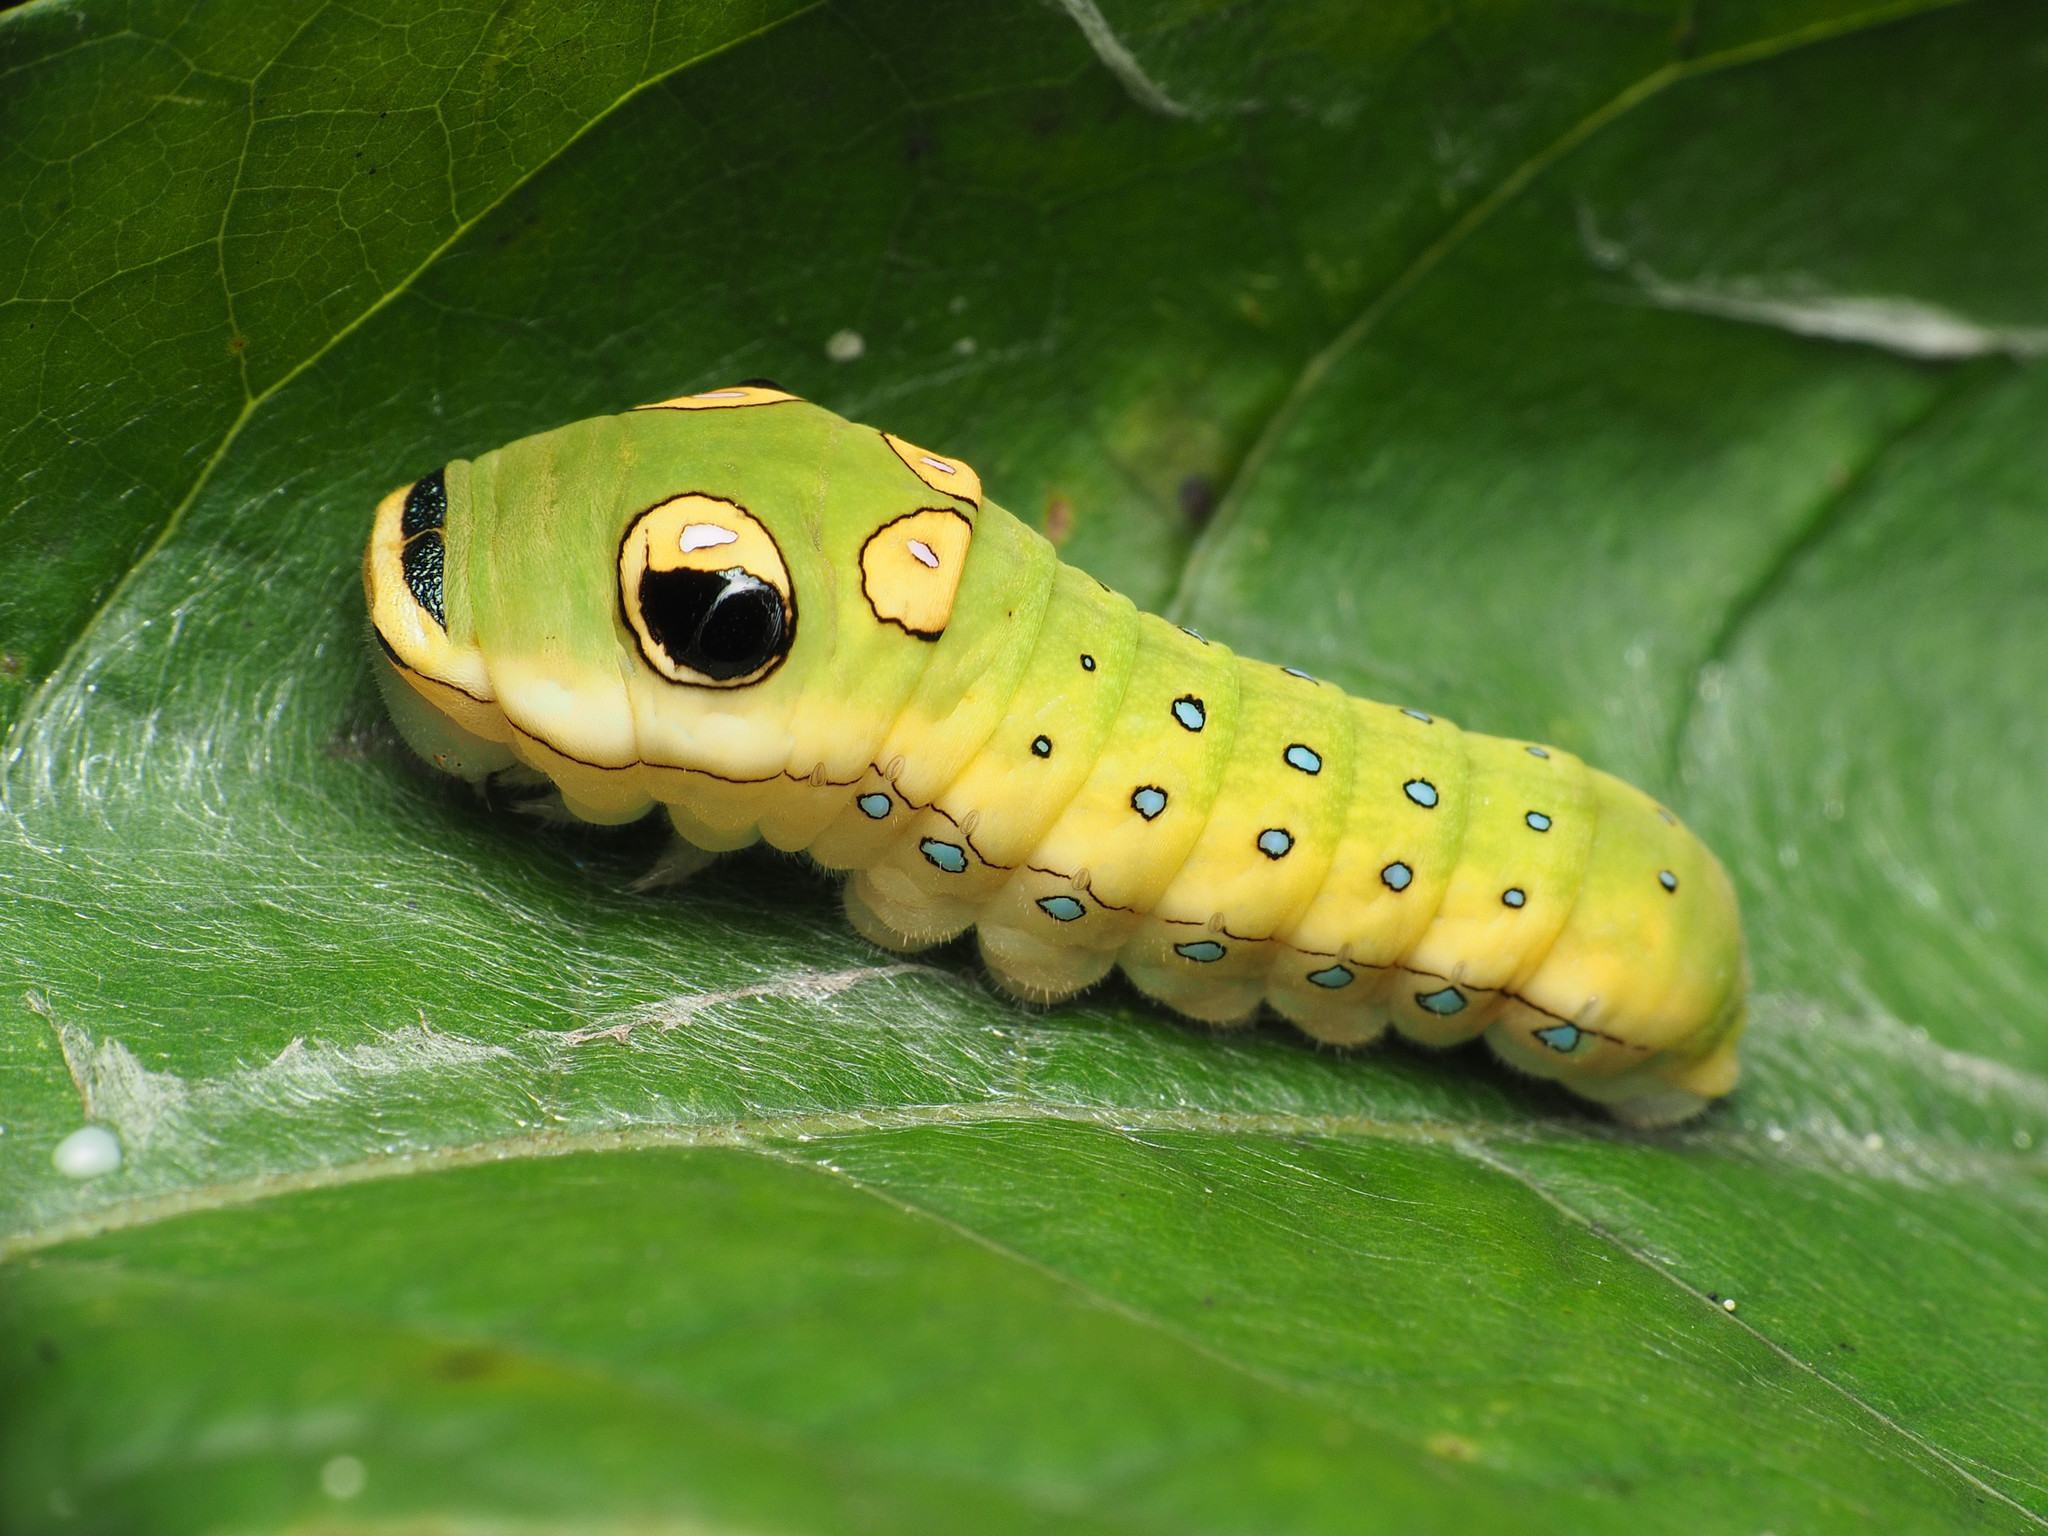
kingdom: Animalia
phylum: Arthropoda
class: Insecta
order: Lepidoptera
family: Papilionidae
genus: Papilio
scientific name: Papilio troilus
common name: Spicebush swallowtail
